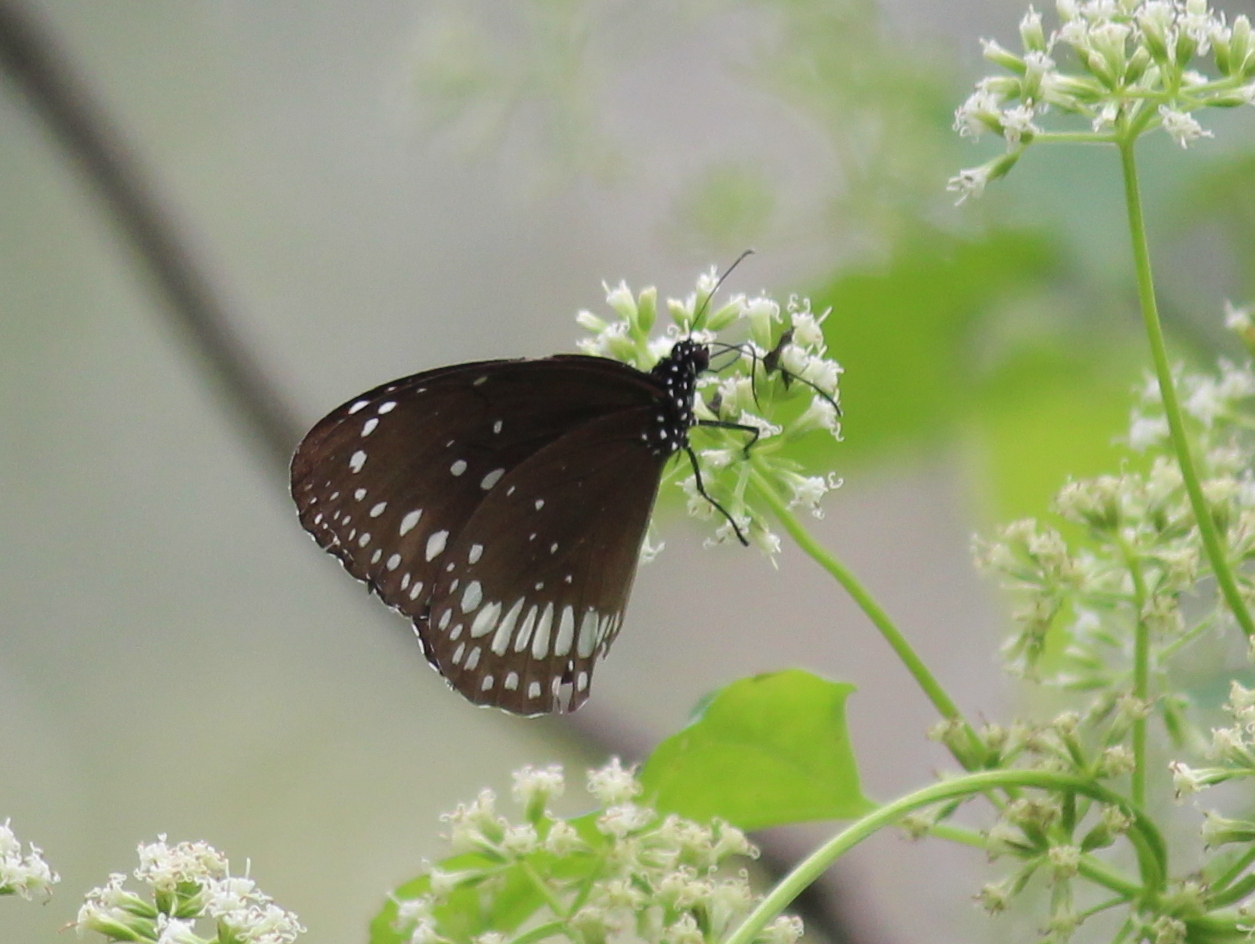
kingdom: Animalia
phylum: Arthropoda
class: Insecta
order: Lepidoptera
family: Nymphalidae
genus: Euploea
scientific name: Euploea core
